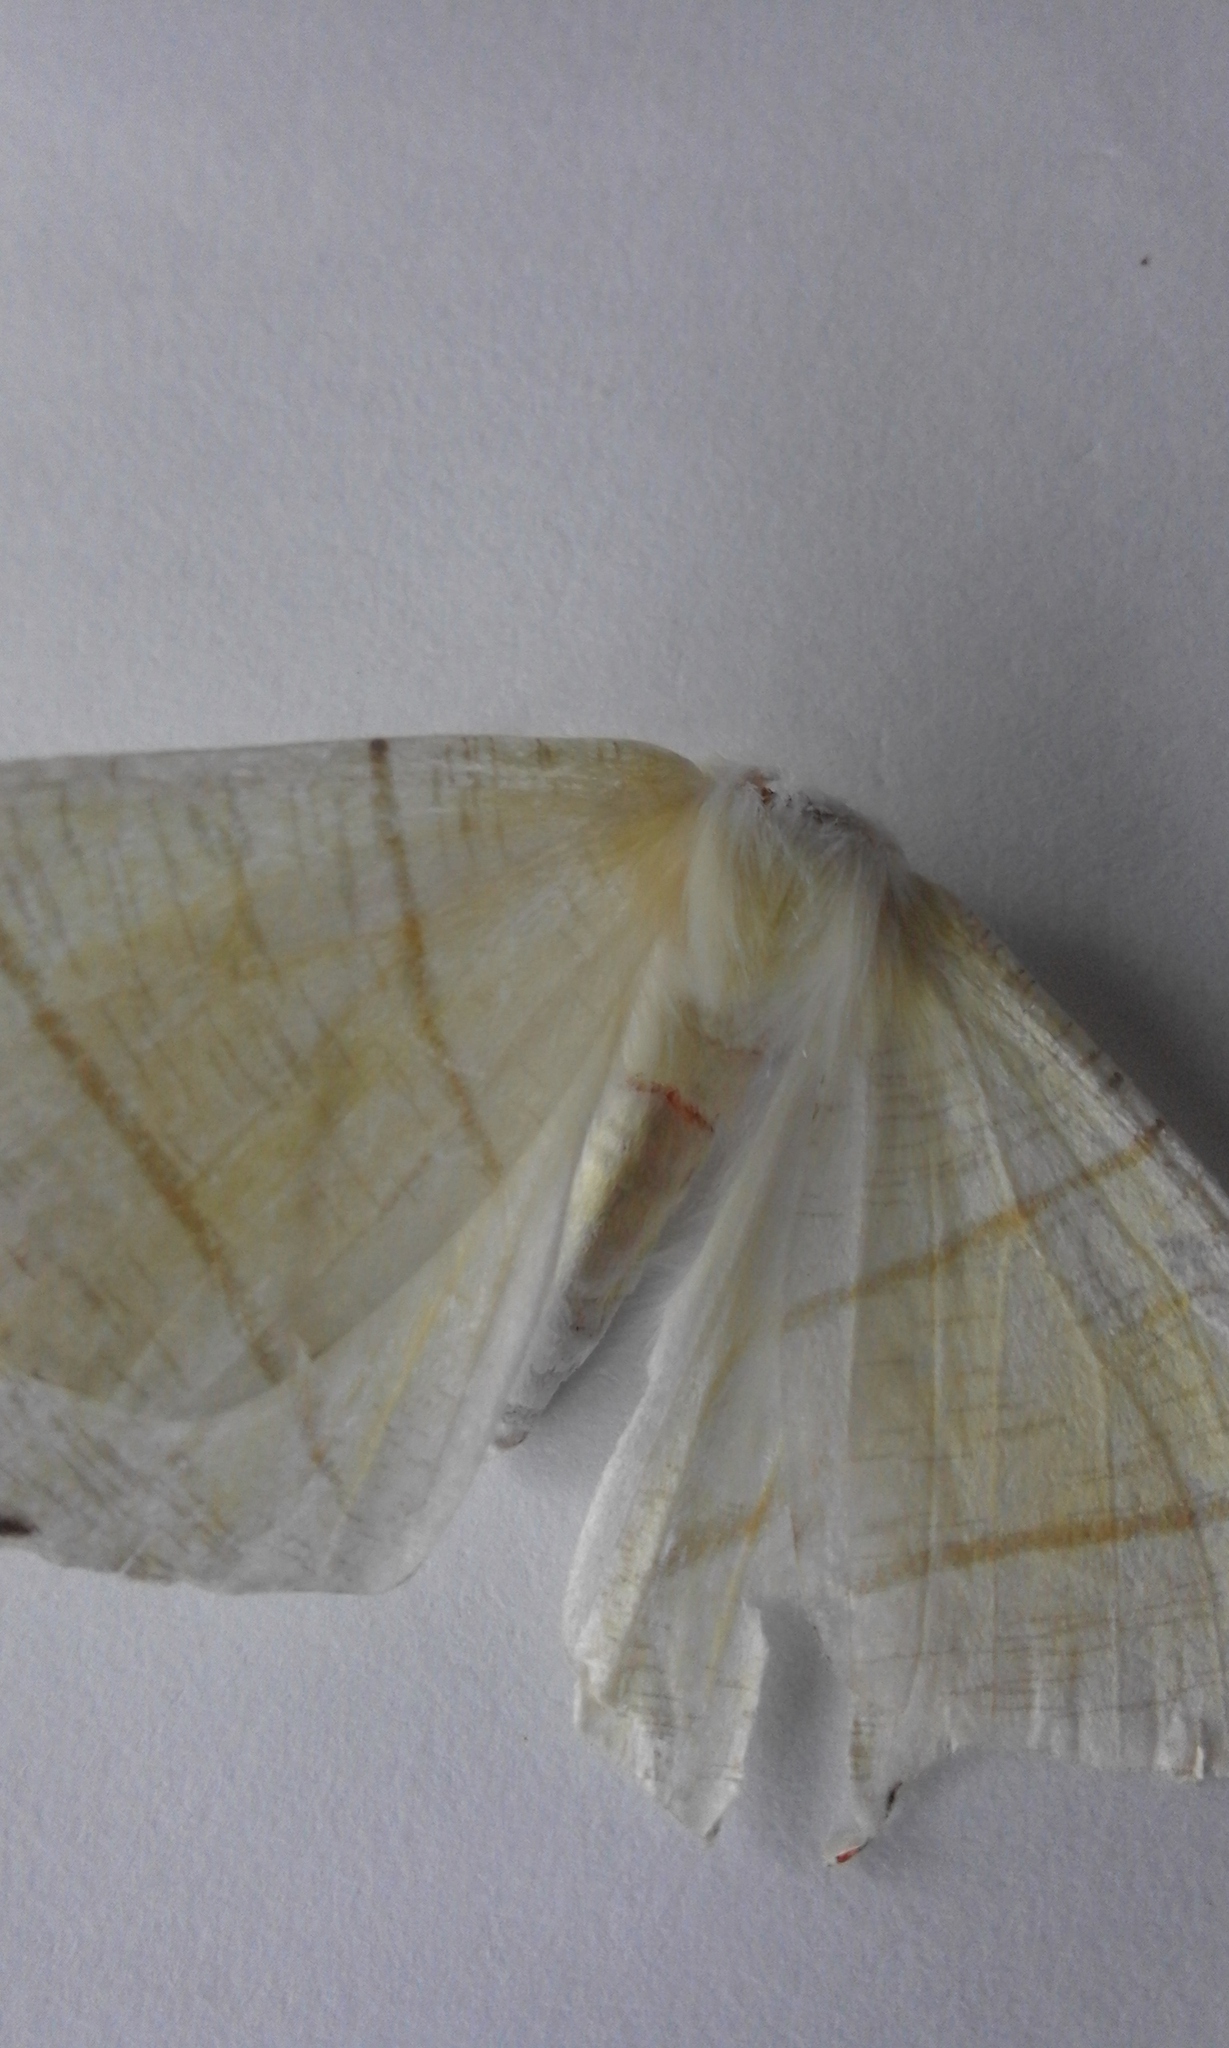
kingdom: Animalia
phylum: Arthropoda
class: Insecta
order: Lepidoptera
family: Geometridae
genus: Ourapteryx
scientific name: Ourapteryx sambucaria
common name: Swallow-tailed moth
